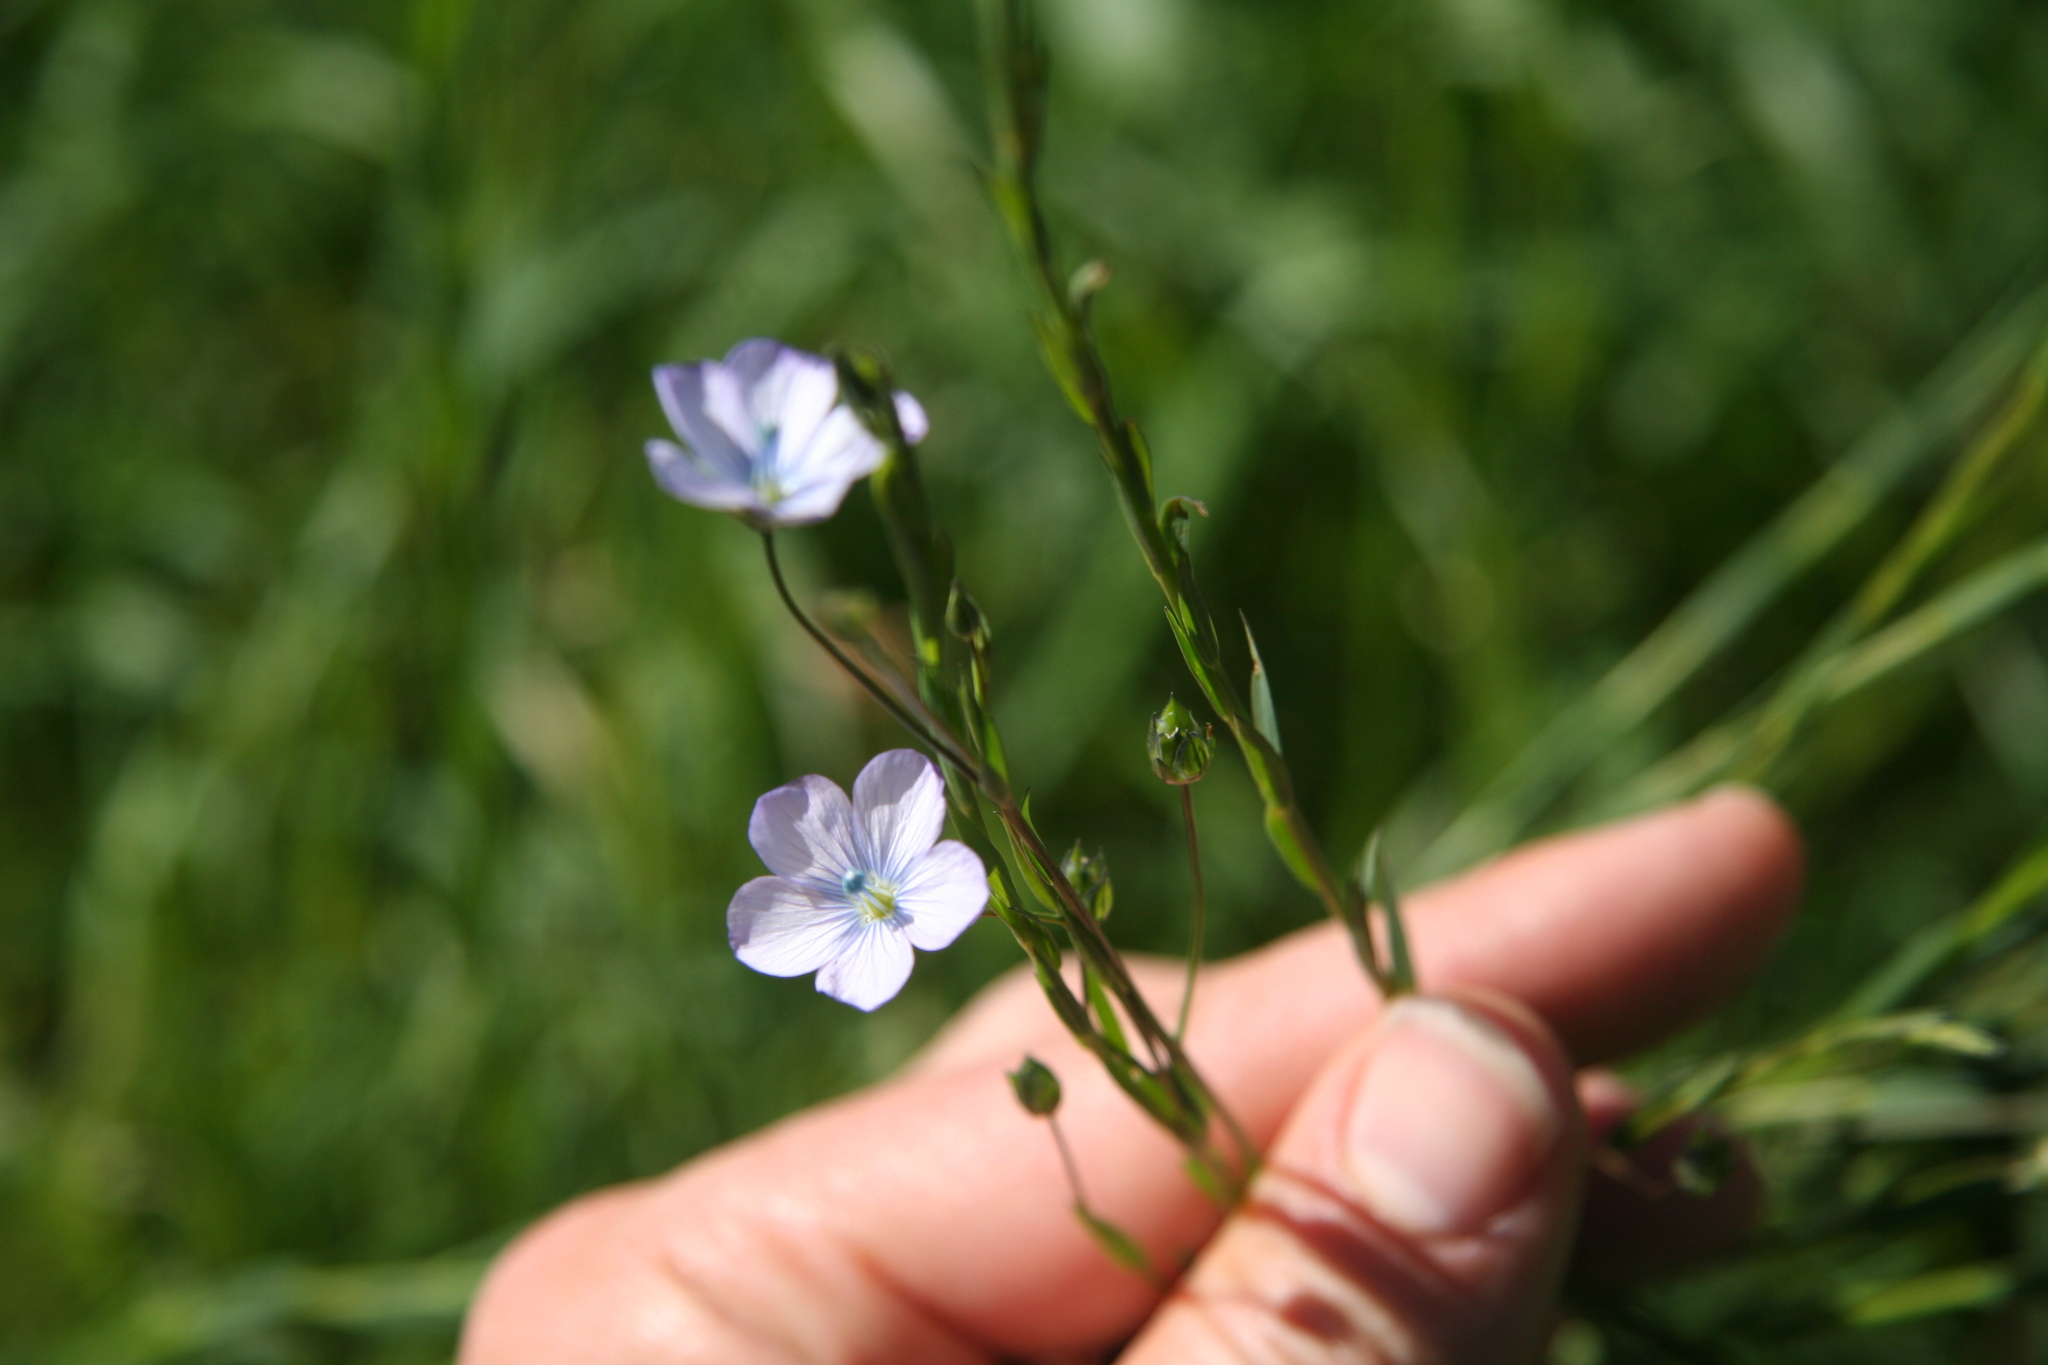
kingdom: Plantae
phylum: Tracheophyta
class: Magnoliopsida
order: Malpighiales
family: Linaceae
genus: Linum
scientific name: Linum bienne
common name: Pale flax
